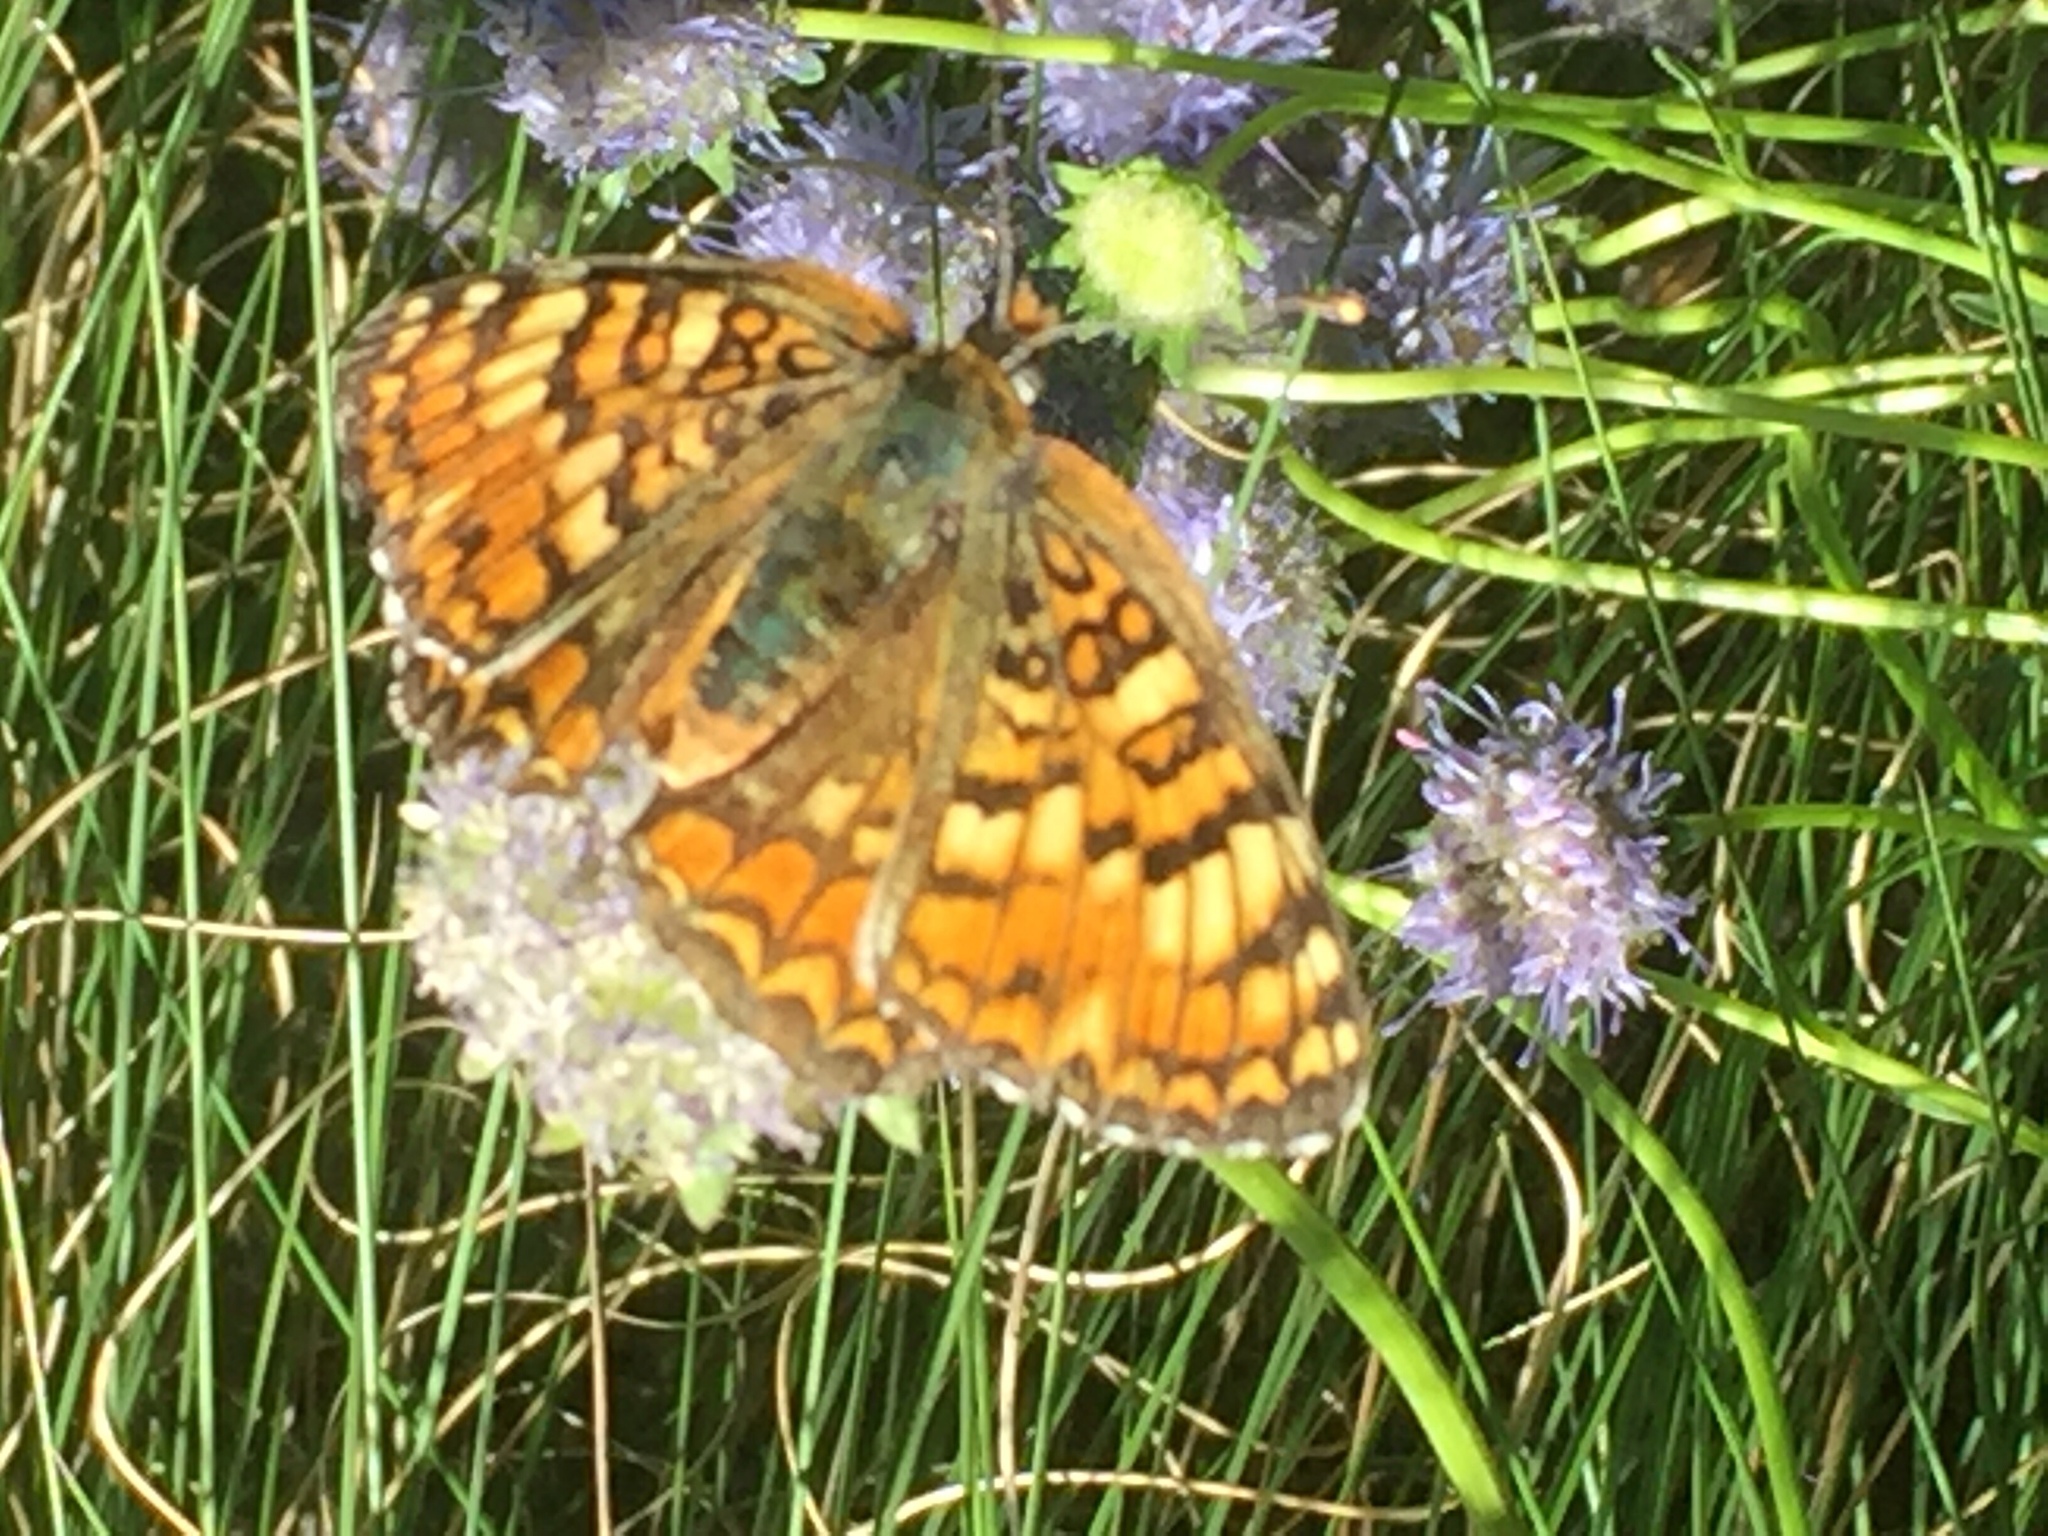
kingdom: Animalia
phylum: Arthropoda
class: Insecta
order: Lepidoptera
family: Nymphalidae
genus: Melitaea
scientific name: Melitaea phoebe
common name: Knapweed fritillary
